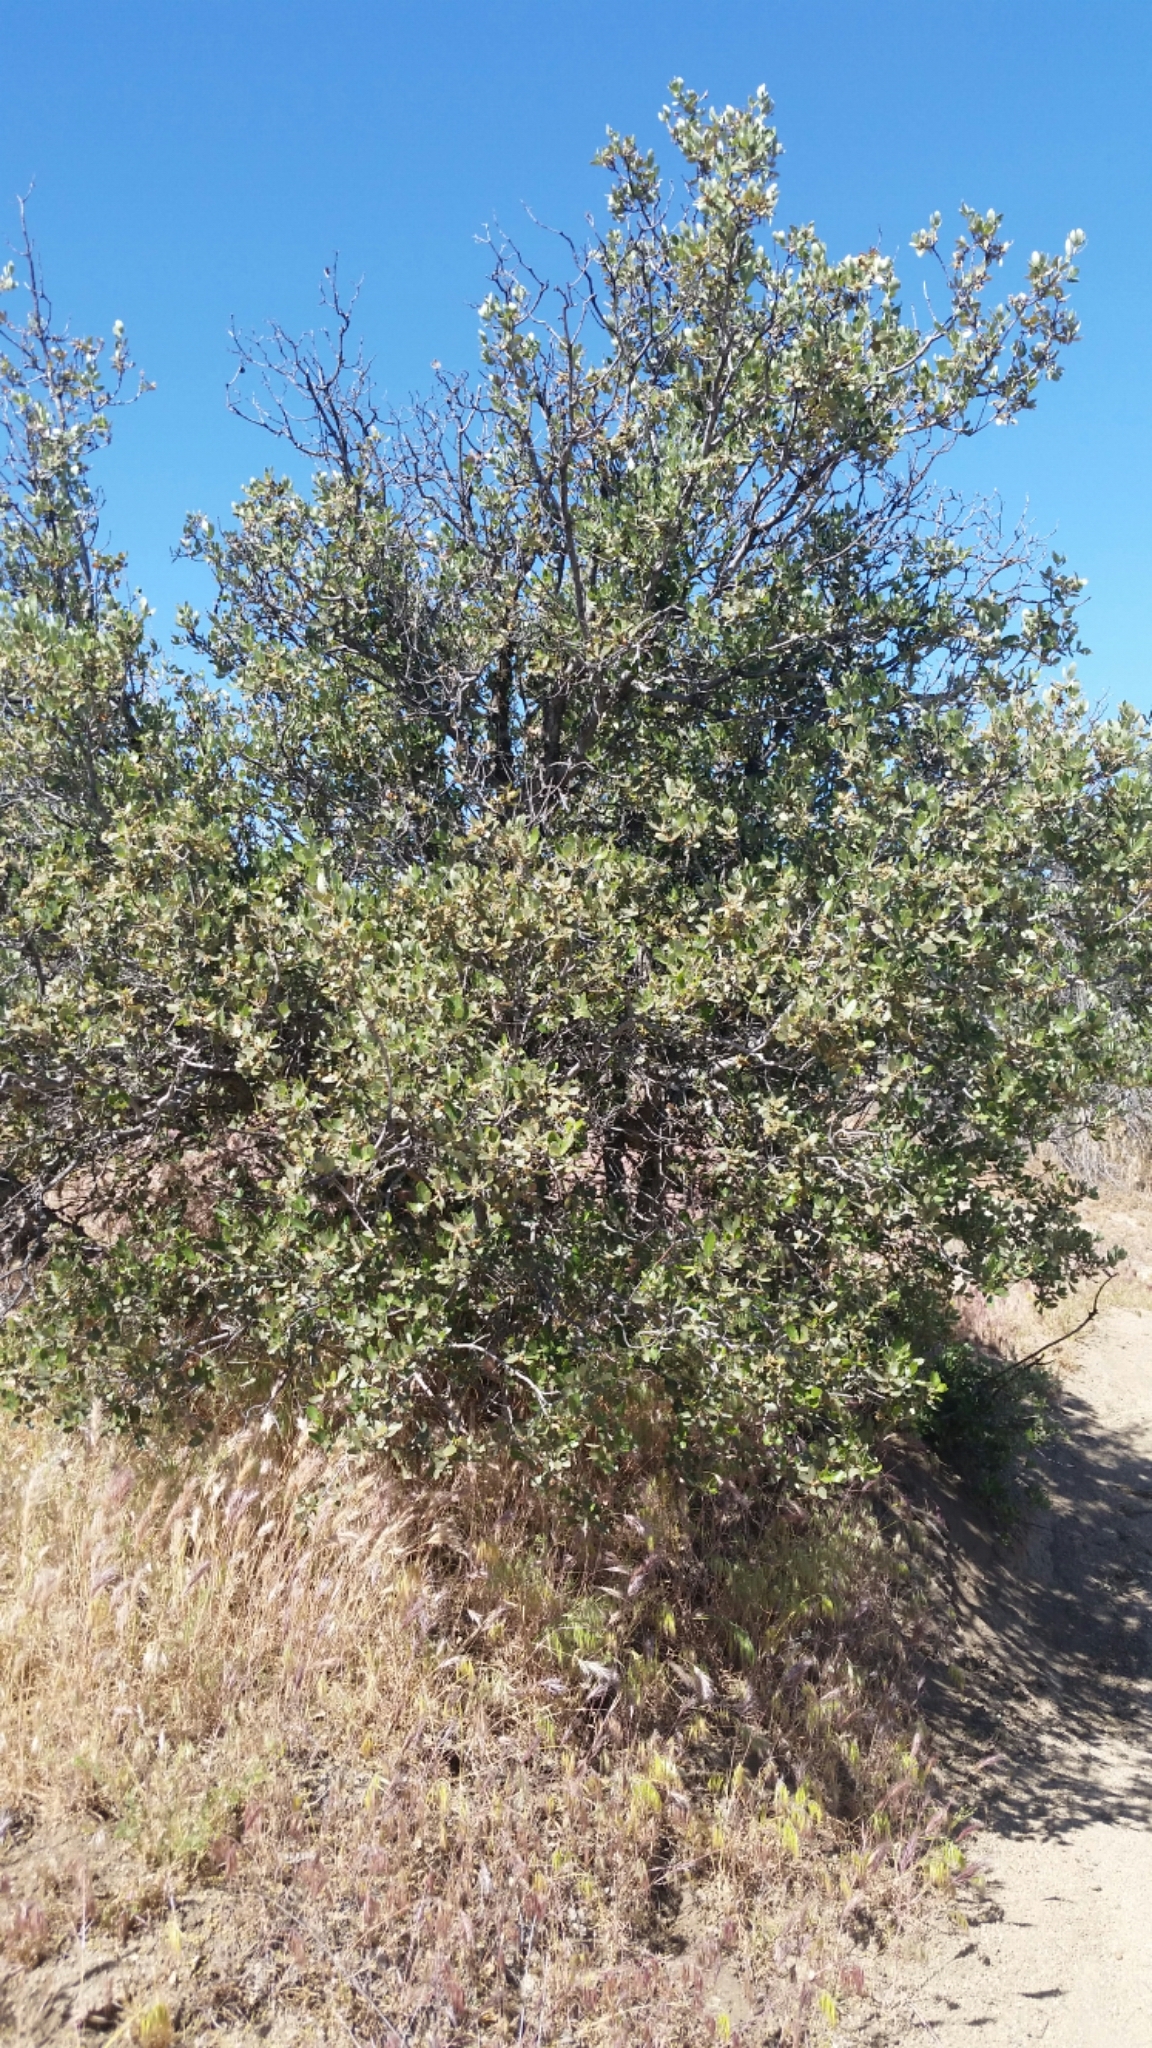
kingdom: Plantae
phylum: Tracheophyta
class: Magnoliopsida
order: Fagales
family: Fagaceae
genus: Quercus
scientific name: Quercus cornelius-mulleri
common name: Muller oak
